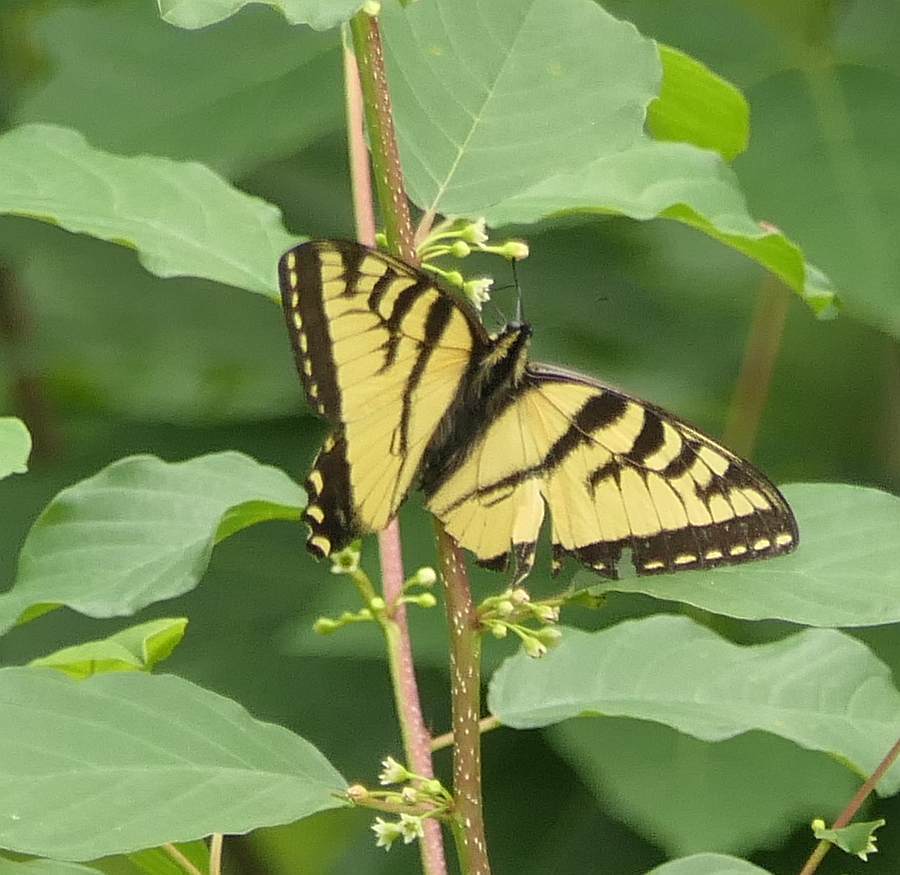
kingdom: Animalia
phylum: Arthropoda
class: Insecta
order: Lepidoptera
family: Papilionidae
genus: Papilio
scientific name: Papilio canadensis
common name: Canadian tiger swallowtail
